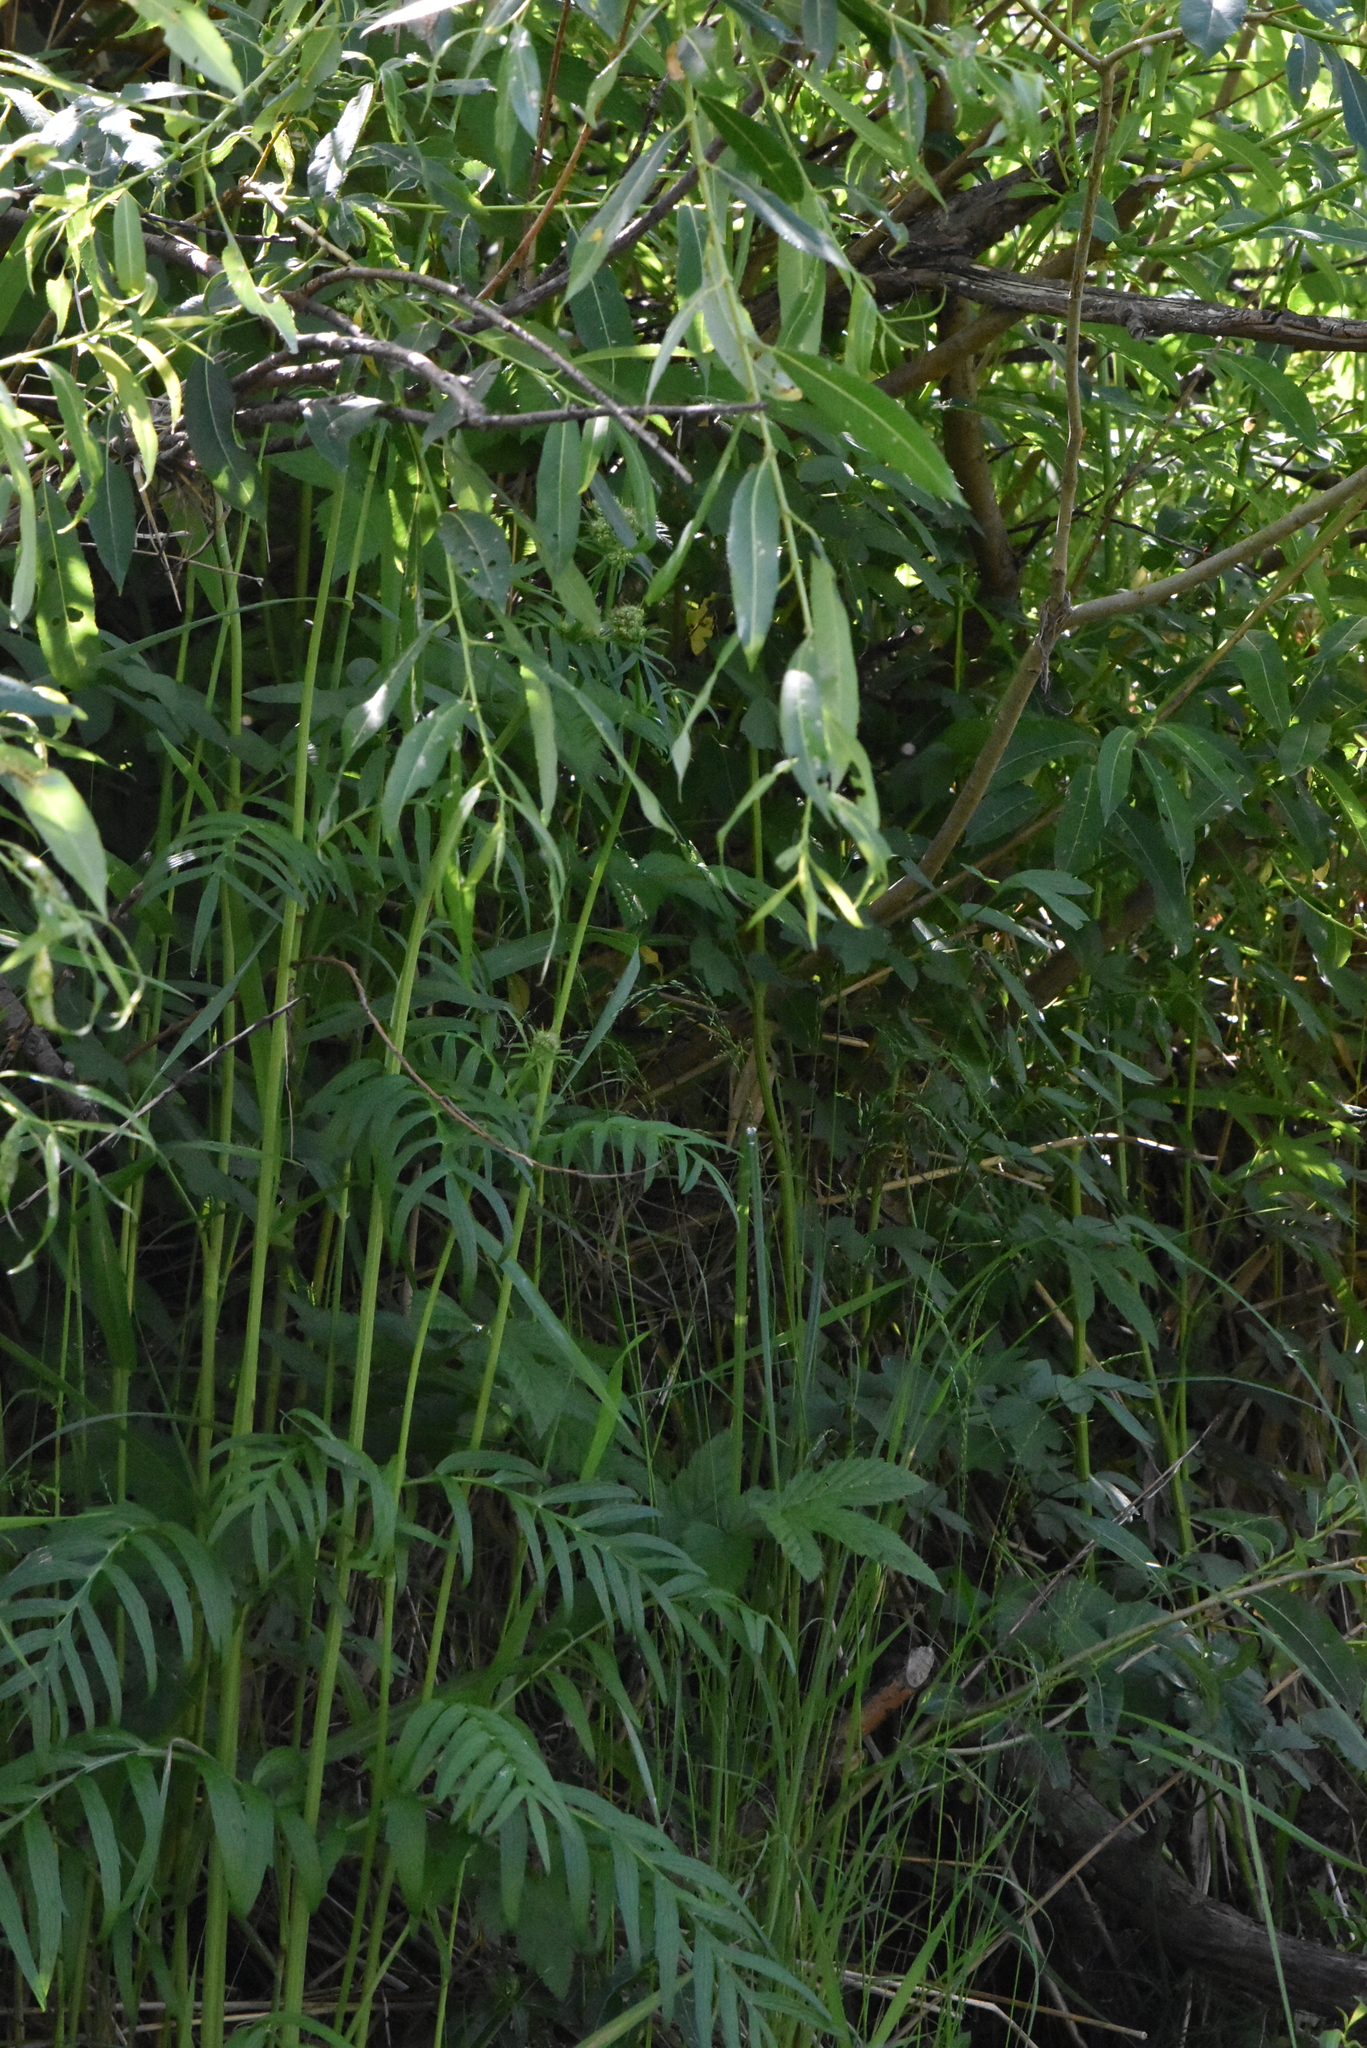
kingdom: Plantae
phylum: Tracheophyta
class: Magnoliopsida
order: Dipsacales
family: Caprifoliaceae
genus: Valeriana
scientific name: Valeriana officinalis
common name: Common valerian
